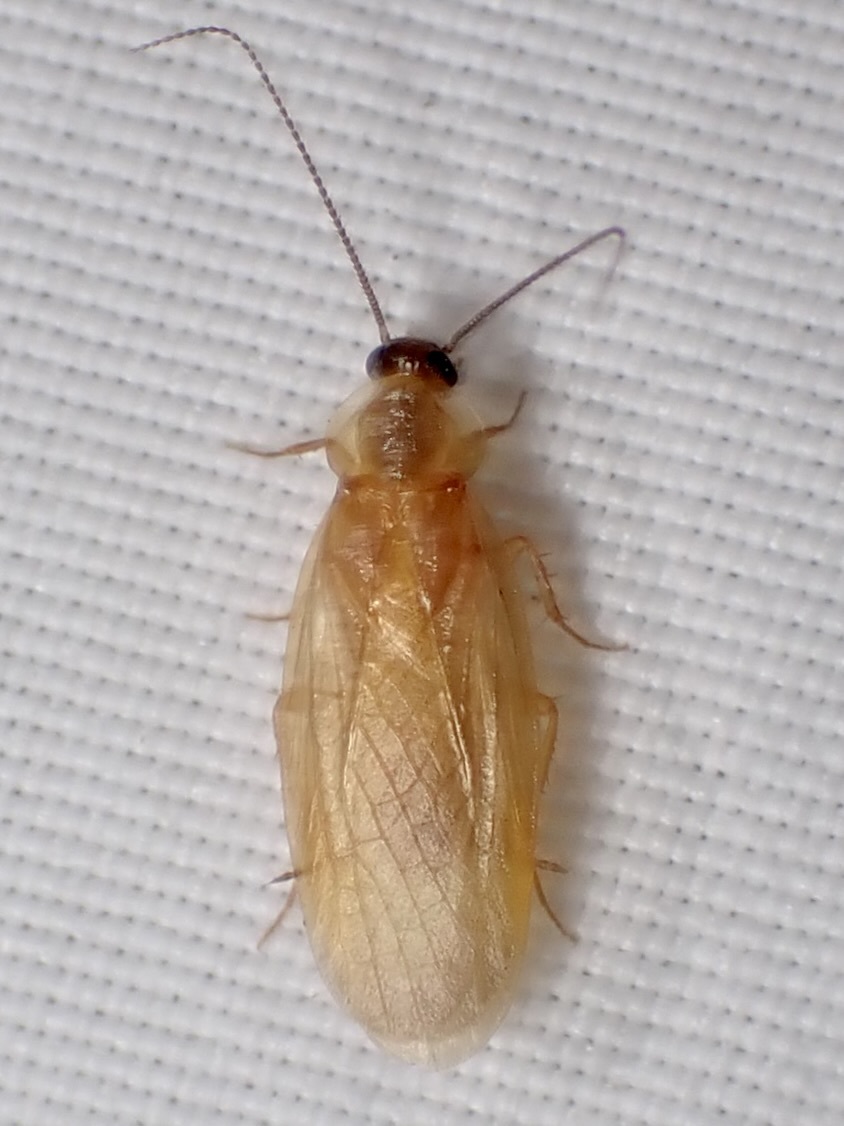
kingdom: Animalia
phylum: Arthropoda
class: Insecta
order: Blattodea
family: Corydiidae
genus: Compsodes
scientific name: Compsodes schwarzi
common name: Schwarz's hooded cockroach
